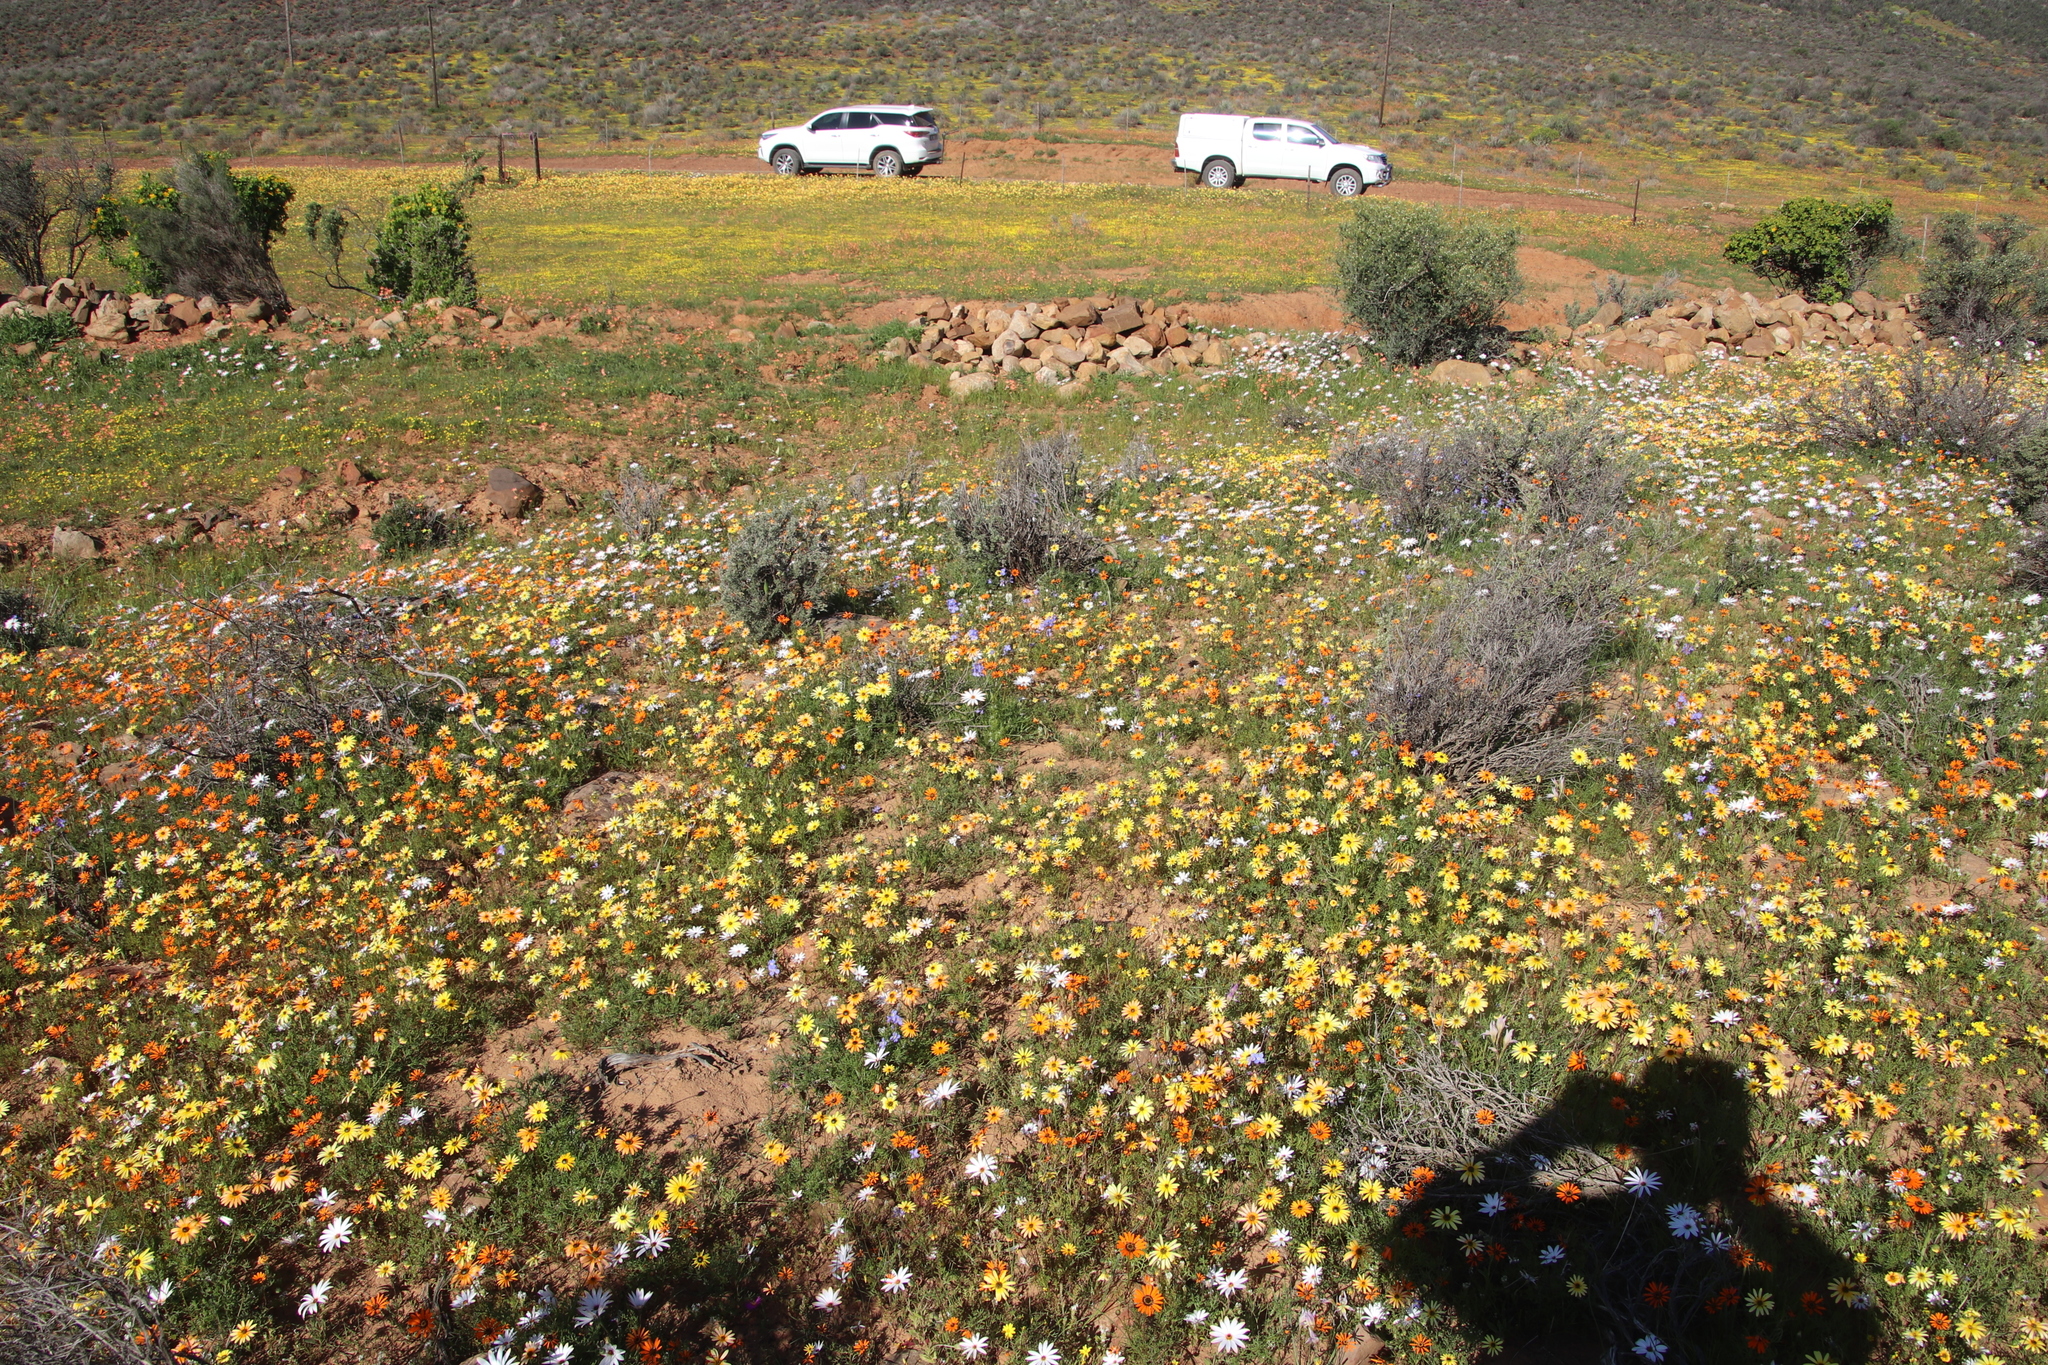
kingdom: Plantae
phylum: Tracheophyta
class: Magnoliopsida
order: Brassicales
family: Brassicaceae
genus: Heliophila
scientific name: Heliophila arenaria
